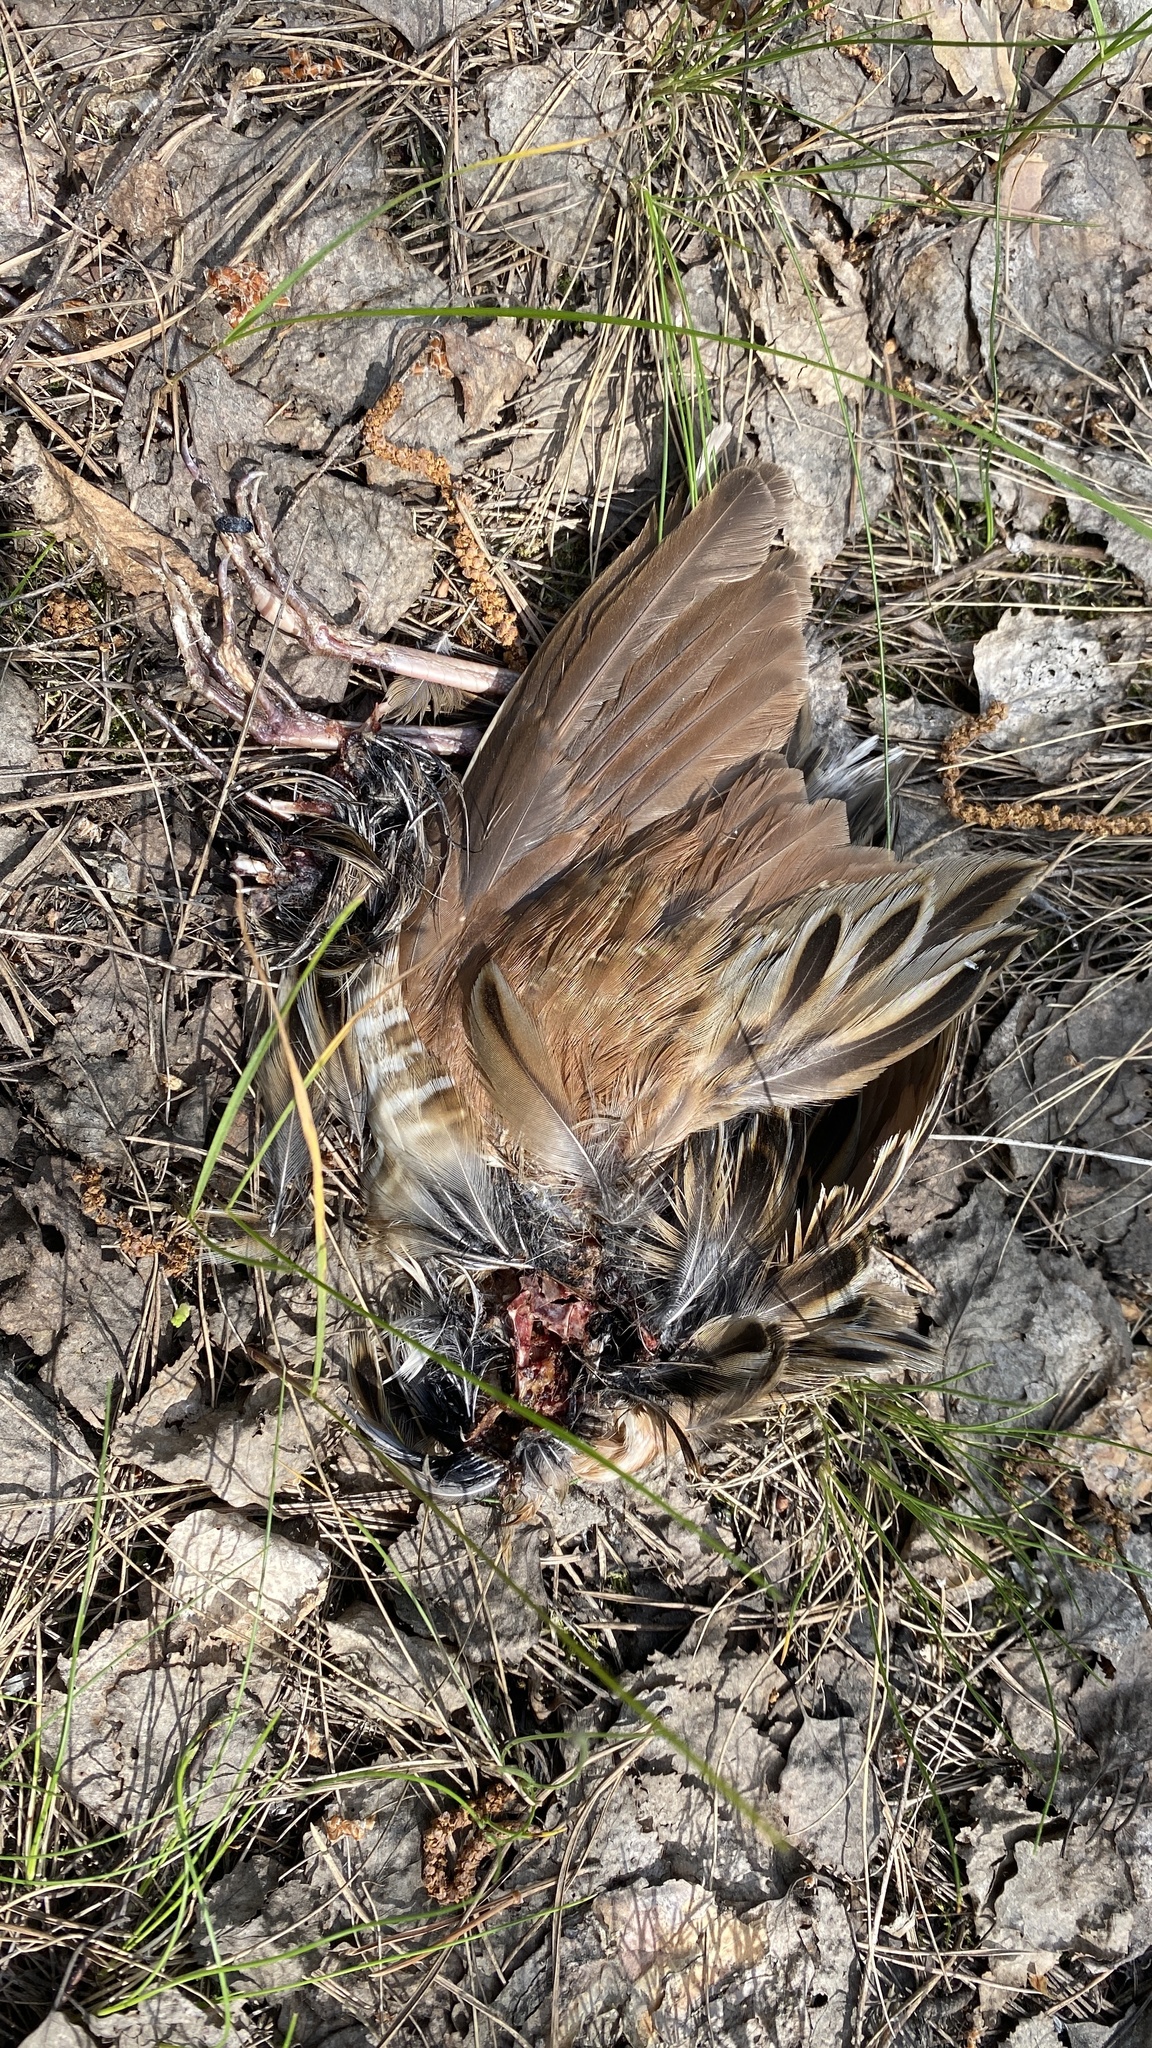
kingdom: Animalia
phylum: Chordata
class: Aves
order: Gruiformes
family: Rallidae
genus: Crex
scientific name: Crex crex
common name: Corn crake
